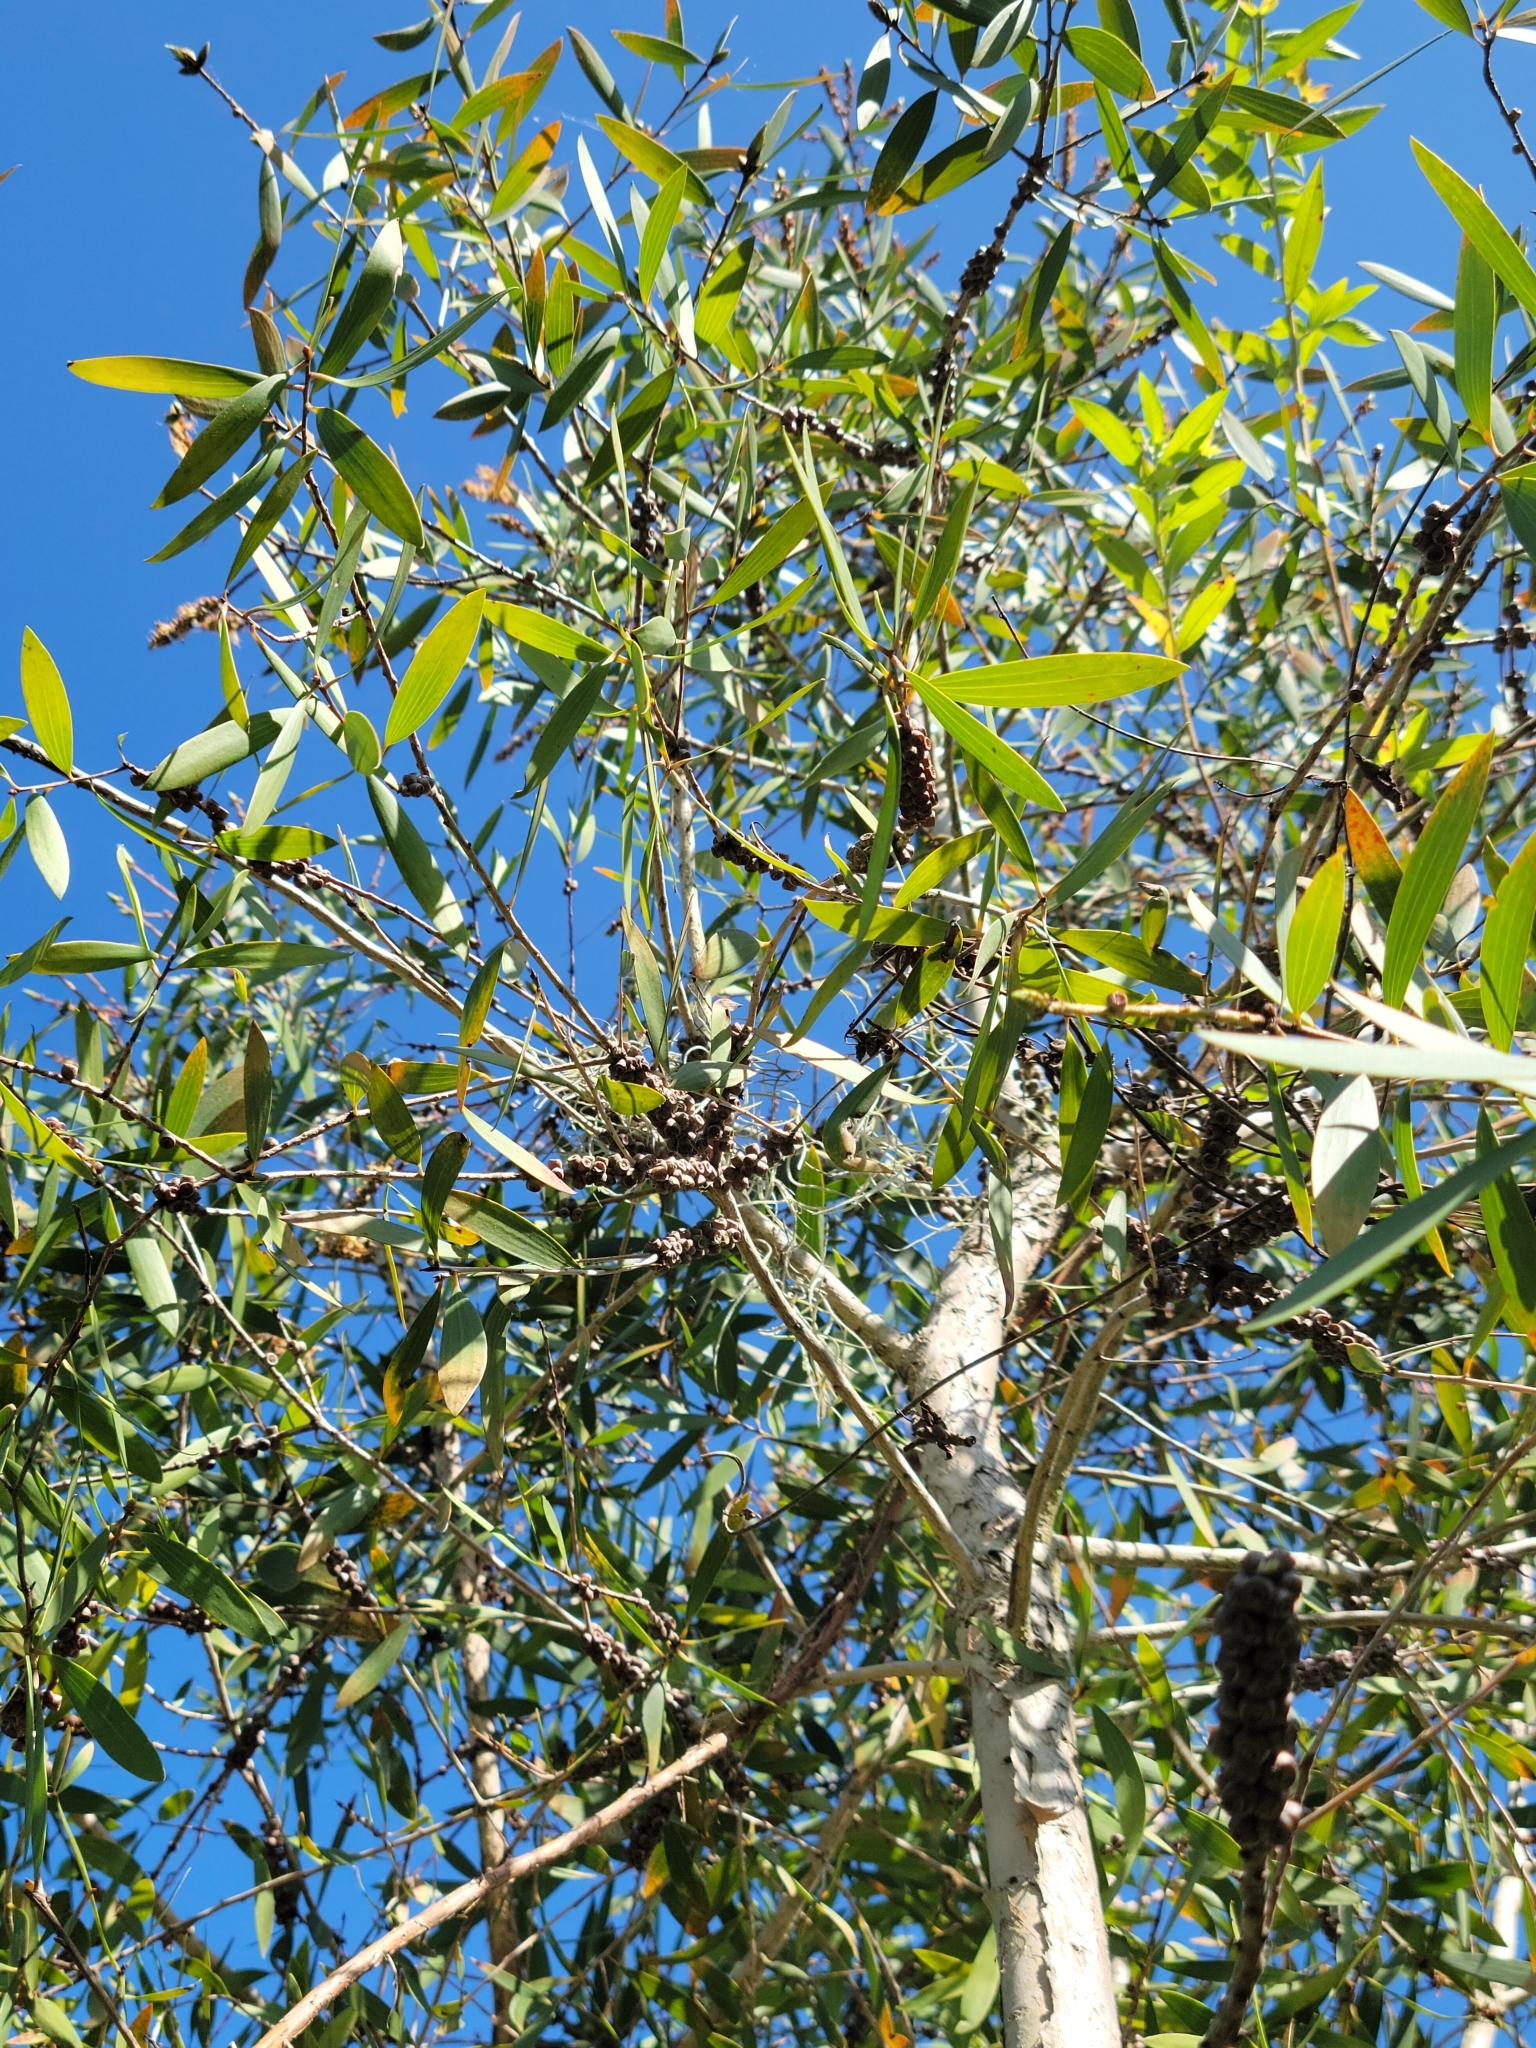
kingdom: Plantae
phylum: Tracheophyta
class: Magnoliopsida
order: Myrtales
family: Myrtaceae
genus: Melaleuca
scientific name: Melaleuca quinquenervia
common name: Punktree
